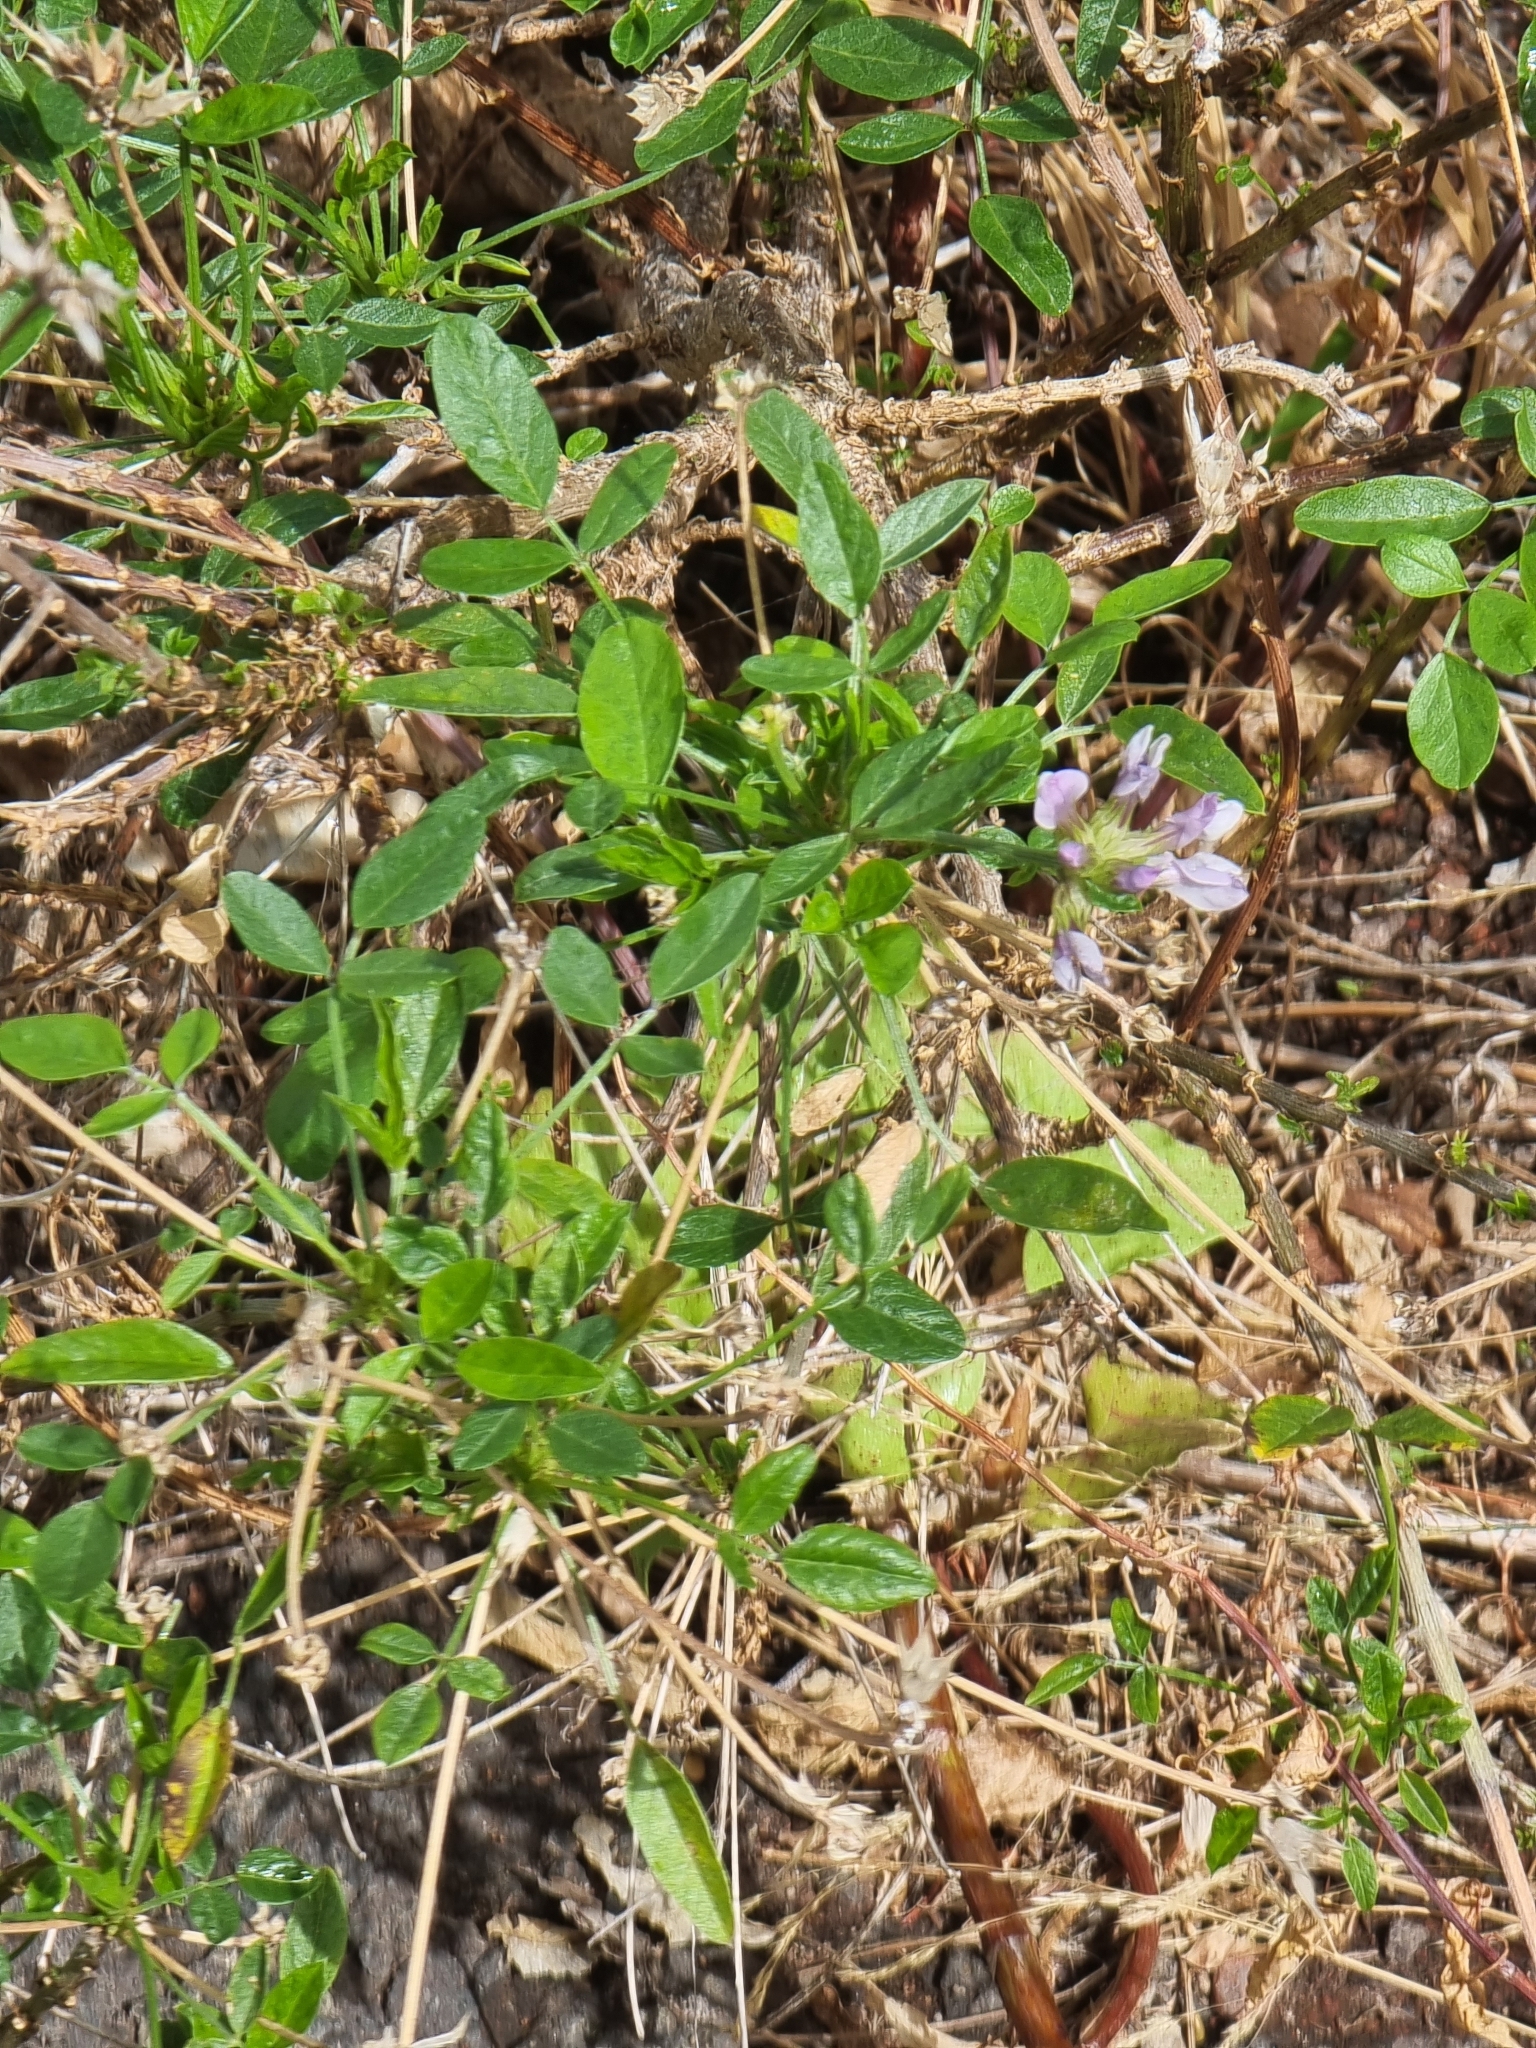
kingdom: Plantae
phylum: Tracheophyta
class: Magnoliopsida
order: Fabales
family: Fabaceae
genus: Bituminaria
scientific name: Bituminaria bituminosa
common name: Arabian pea
